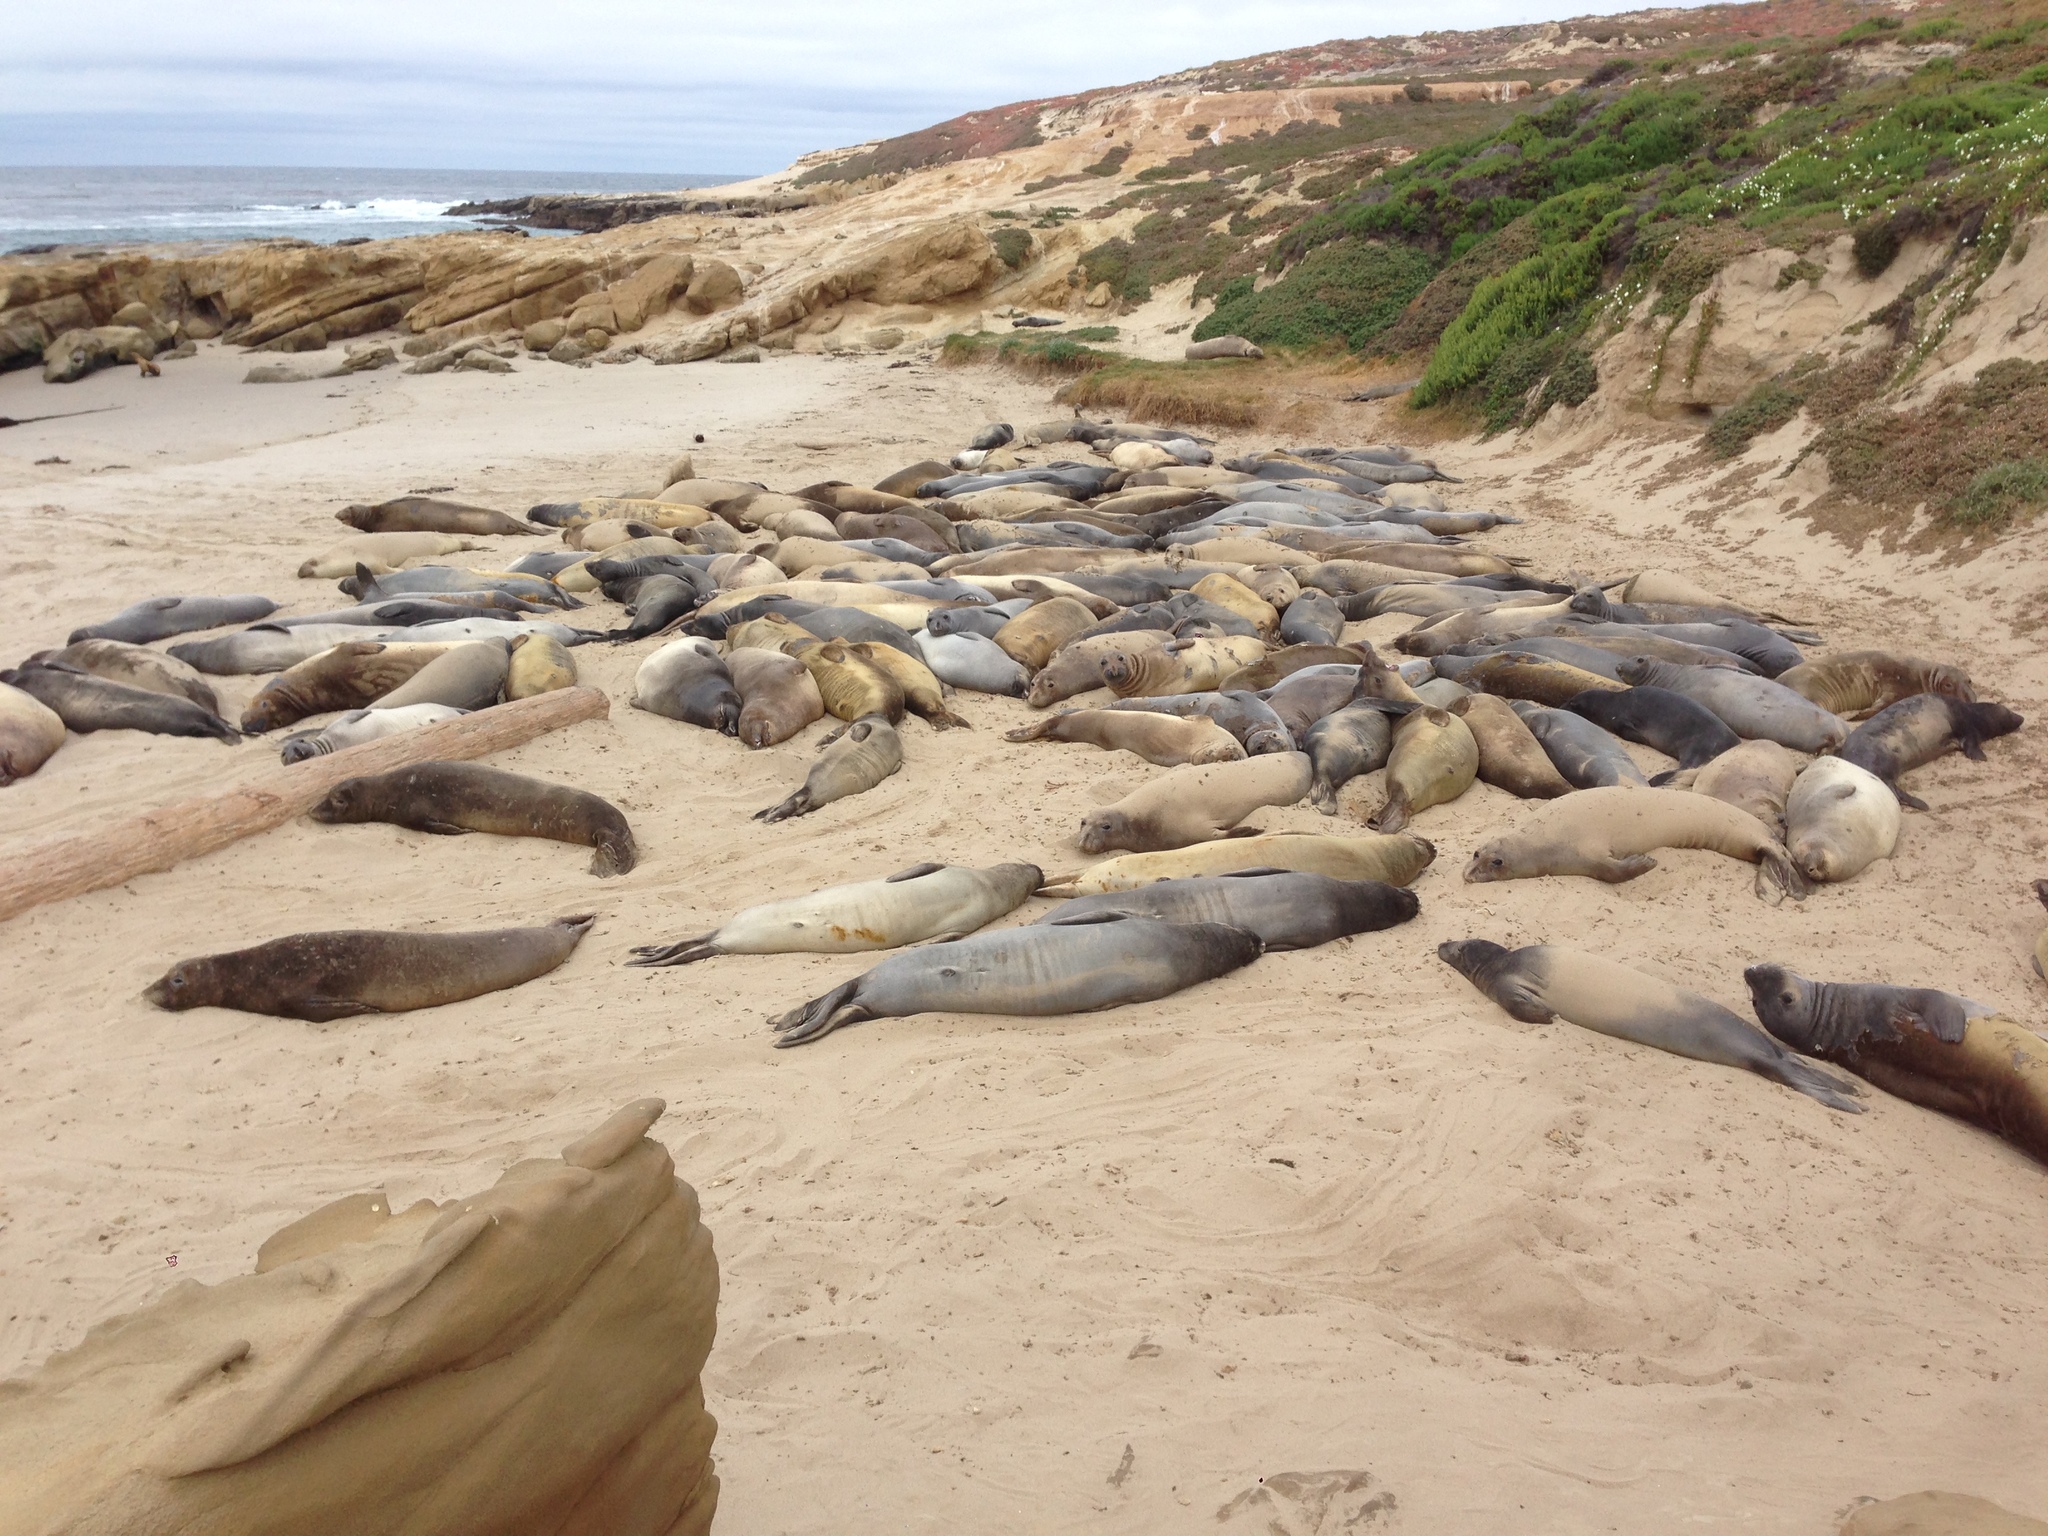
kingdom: Animalia
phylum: Chordata
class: Mammalia
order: Carnivora
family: Phocidae
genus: Mirounga
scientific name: Mirounga angustirostris
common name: Northern elephant seal
